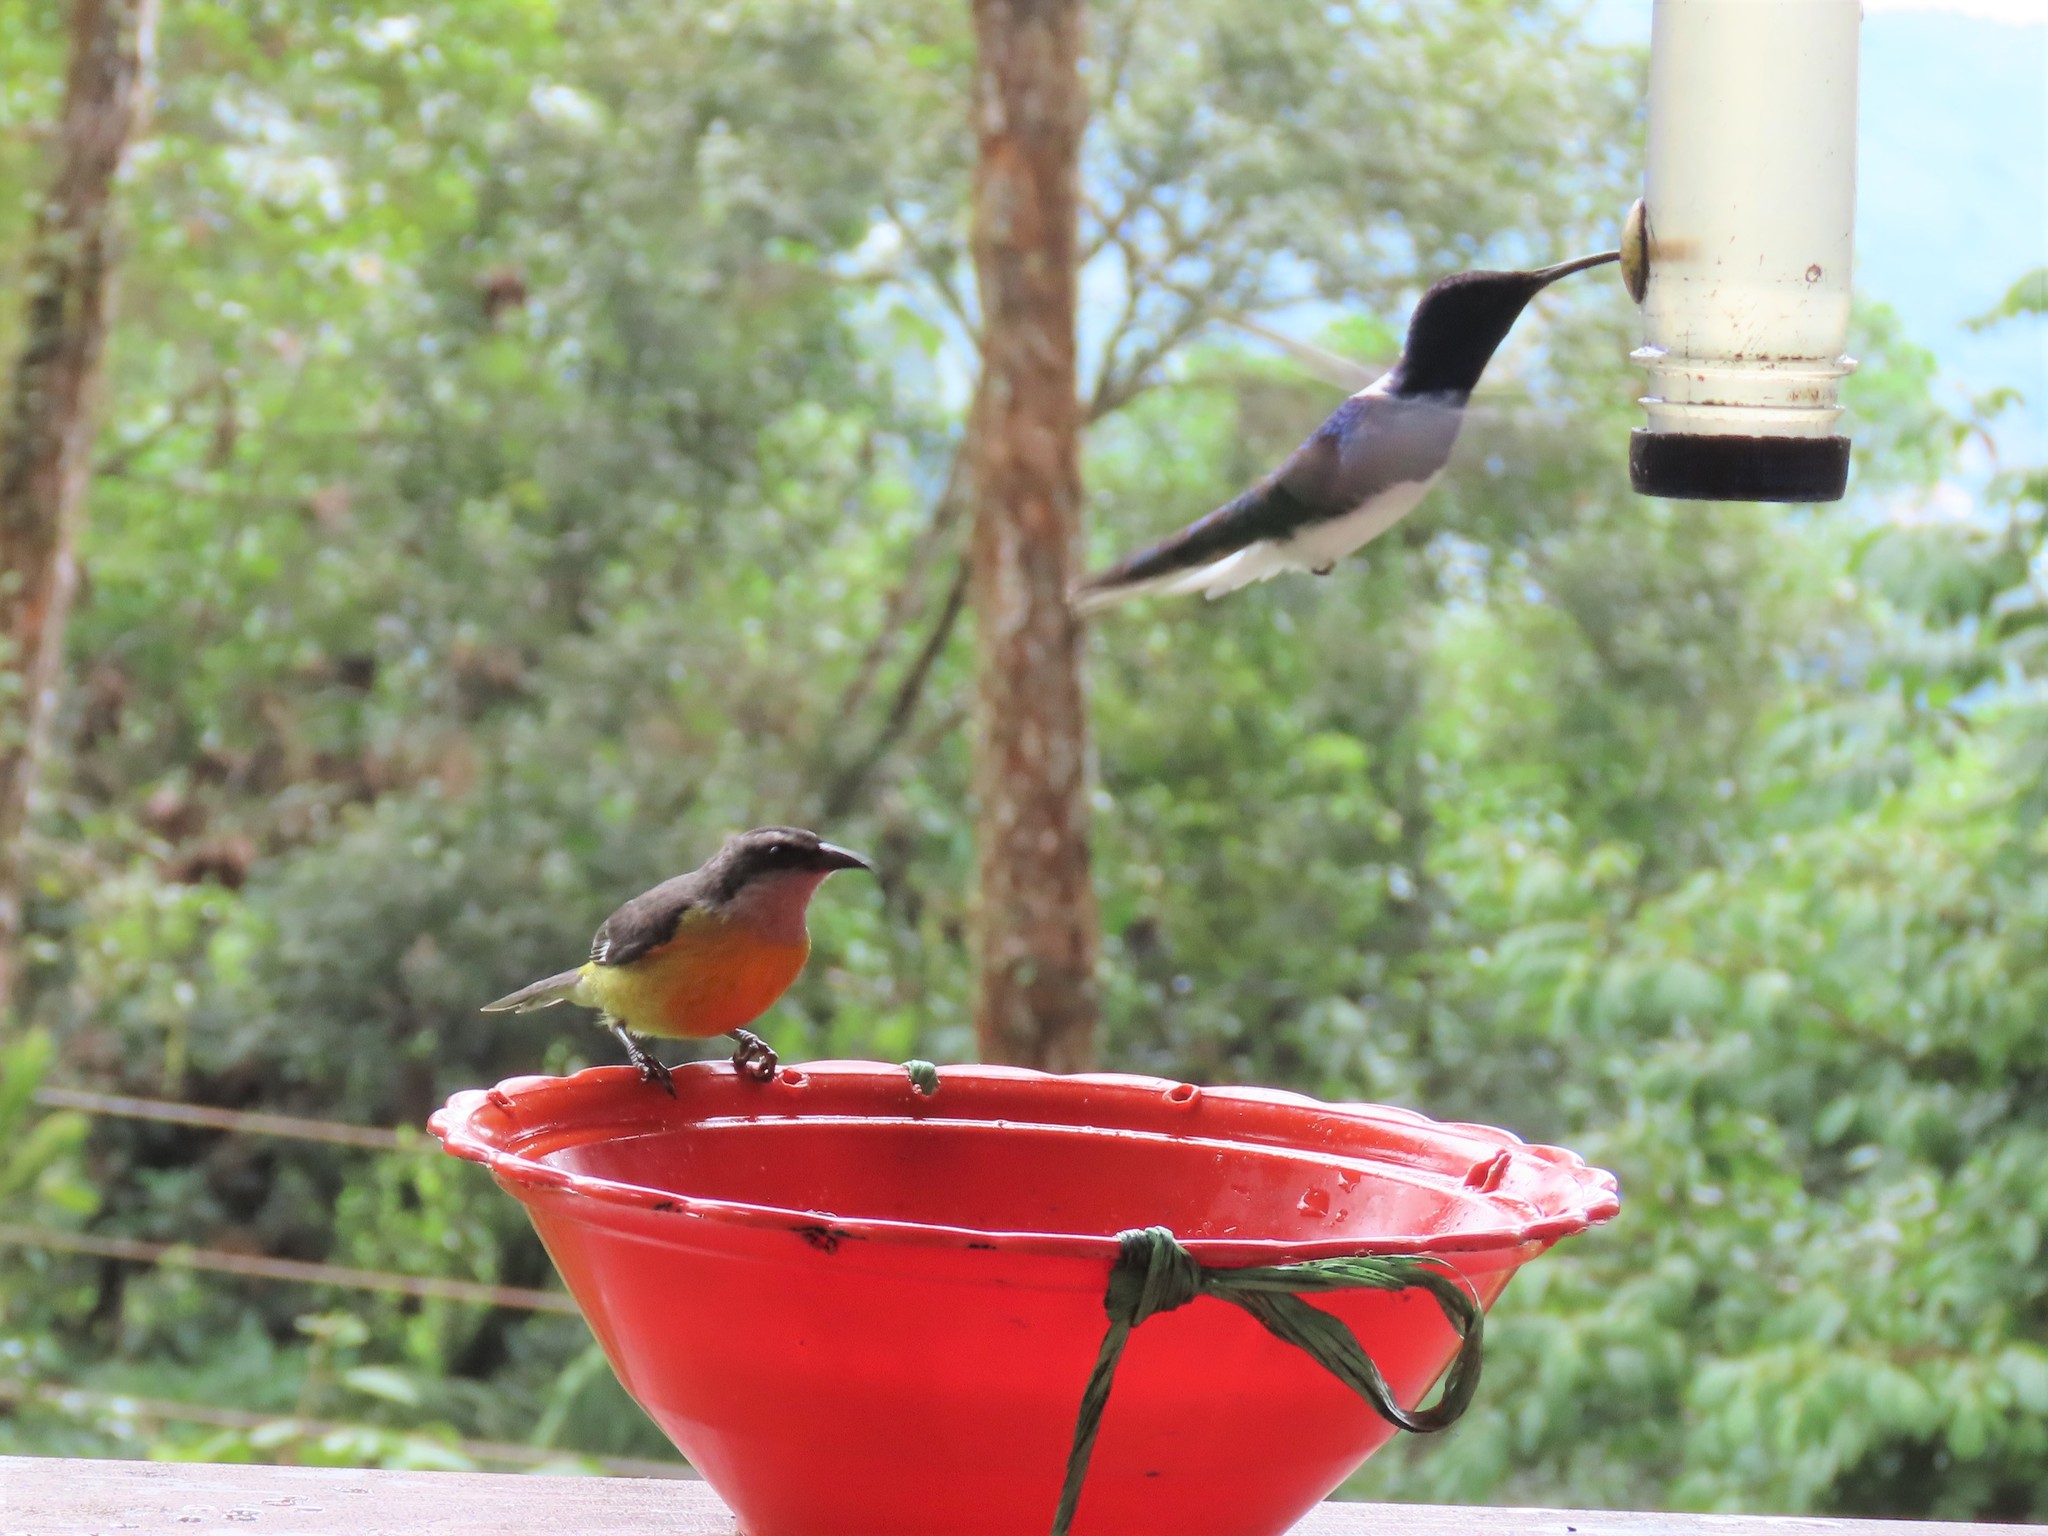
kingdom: Animalia
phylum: Chordata
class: Aves
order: Apodiformes
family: Trochilidae
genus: Florisuga
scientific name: Florisuga mellivora
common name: White-necked jacobin
